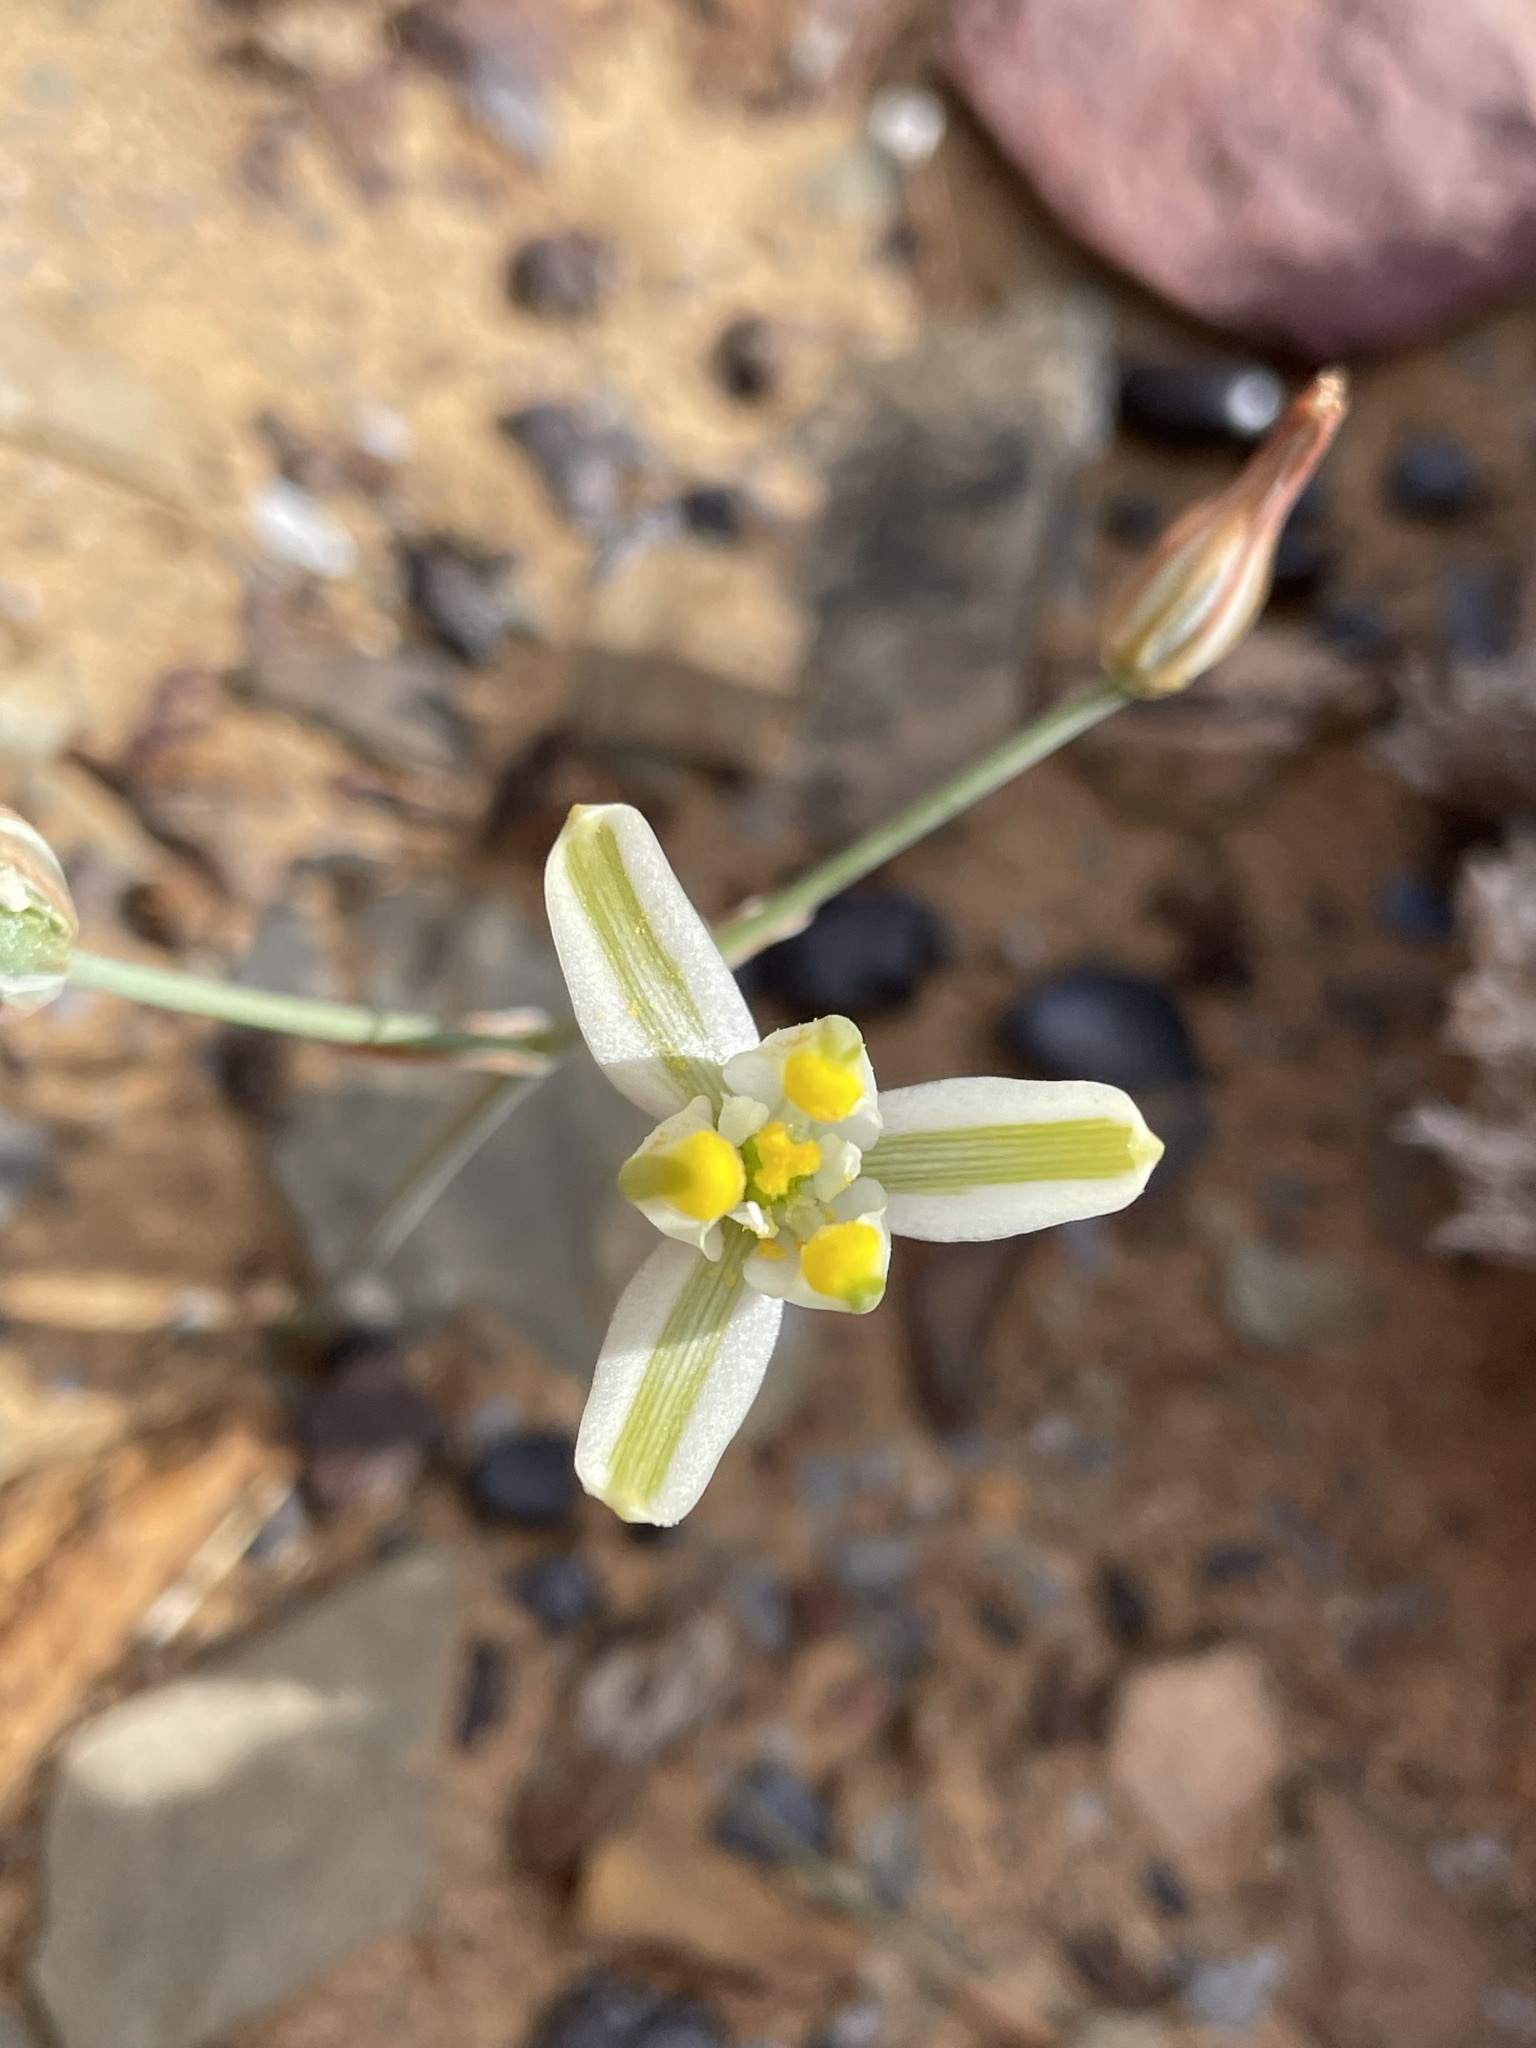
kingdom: Plantae
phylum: Tracheophyta
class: Liliopsida
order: Asparagales
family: Asparagaceae
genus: Albuca
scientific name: Albuca longipes
